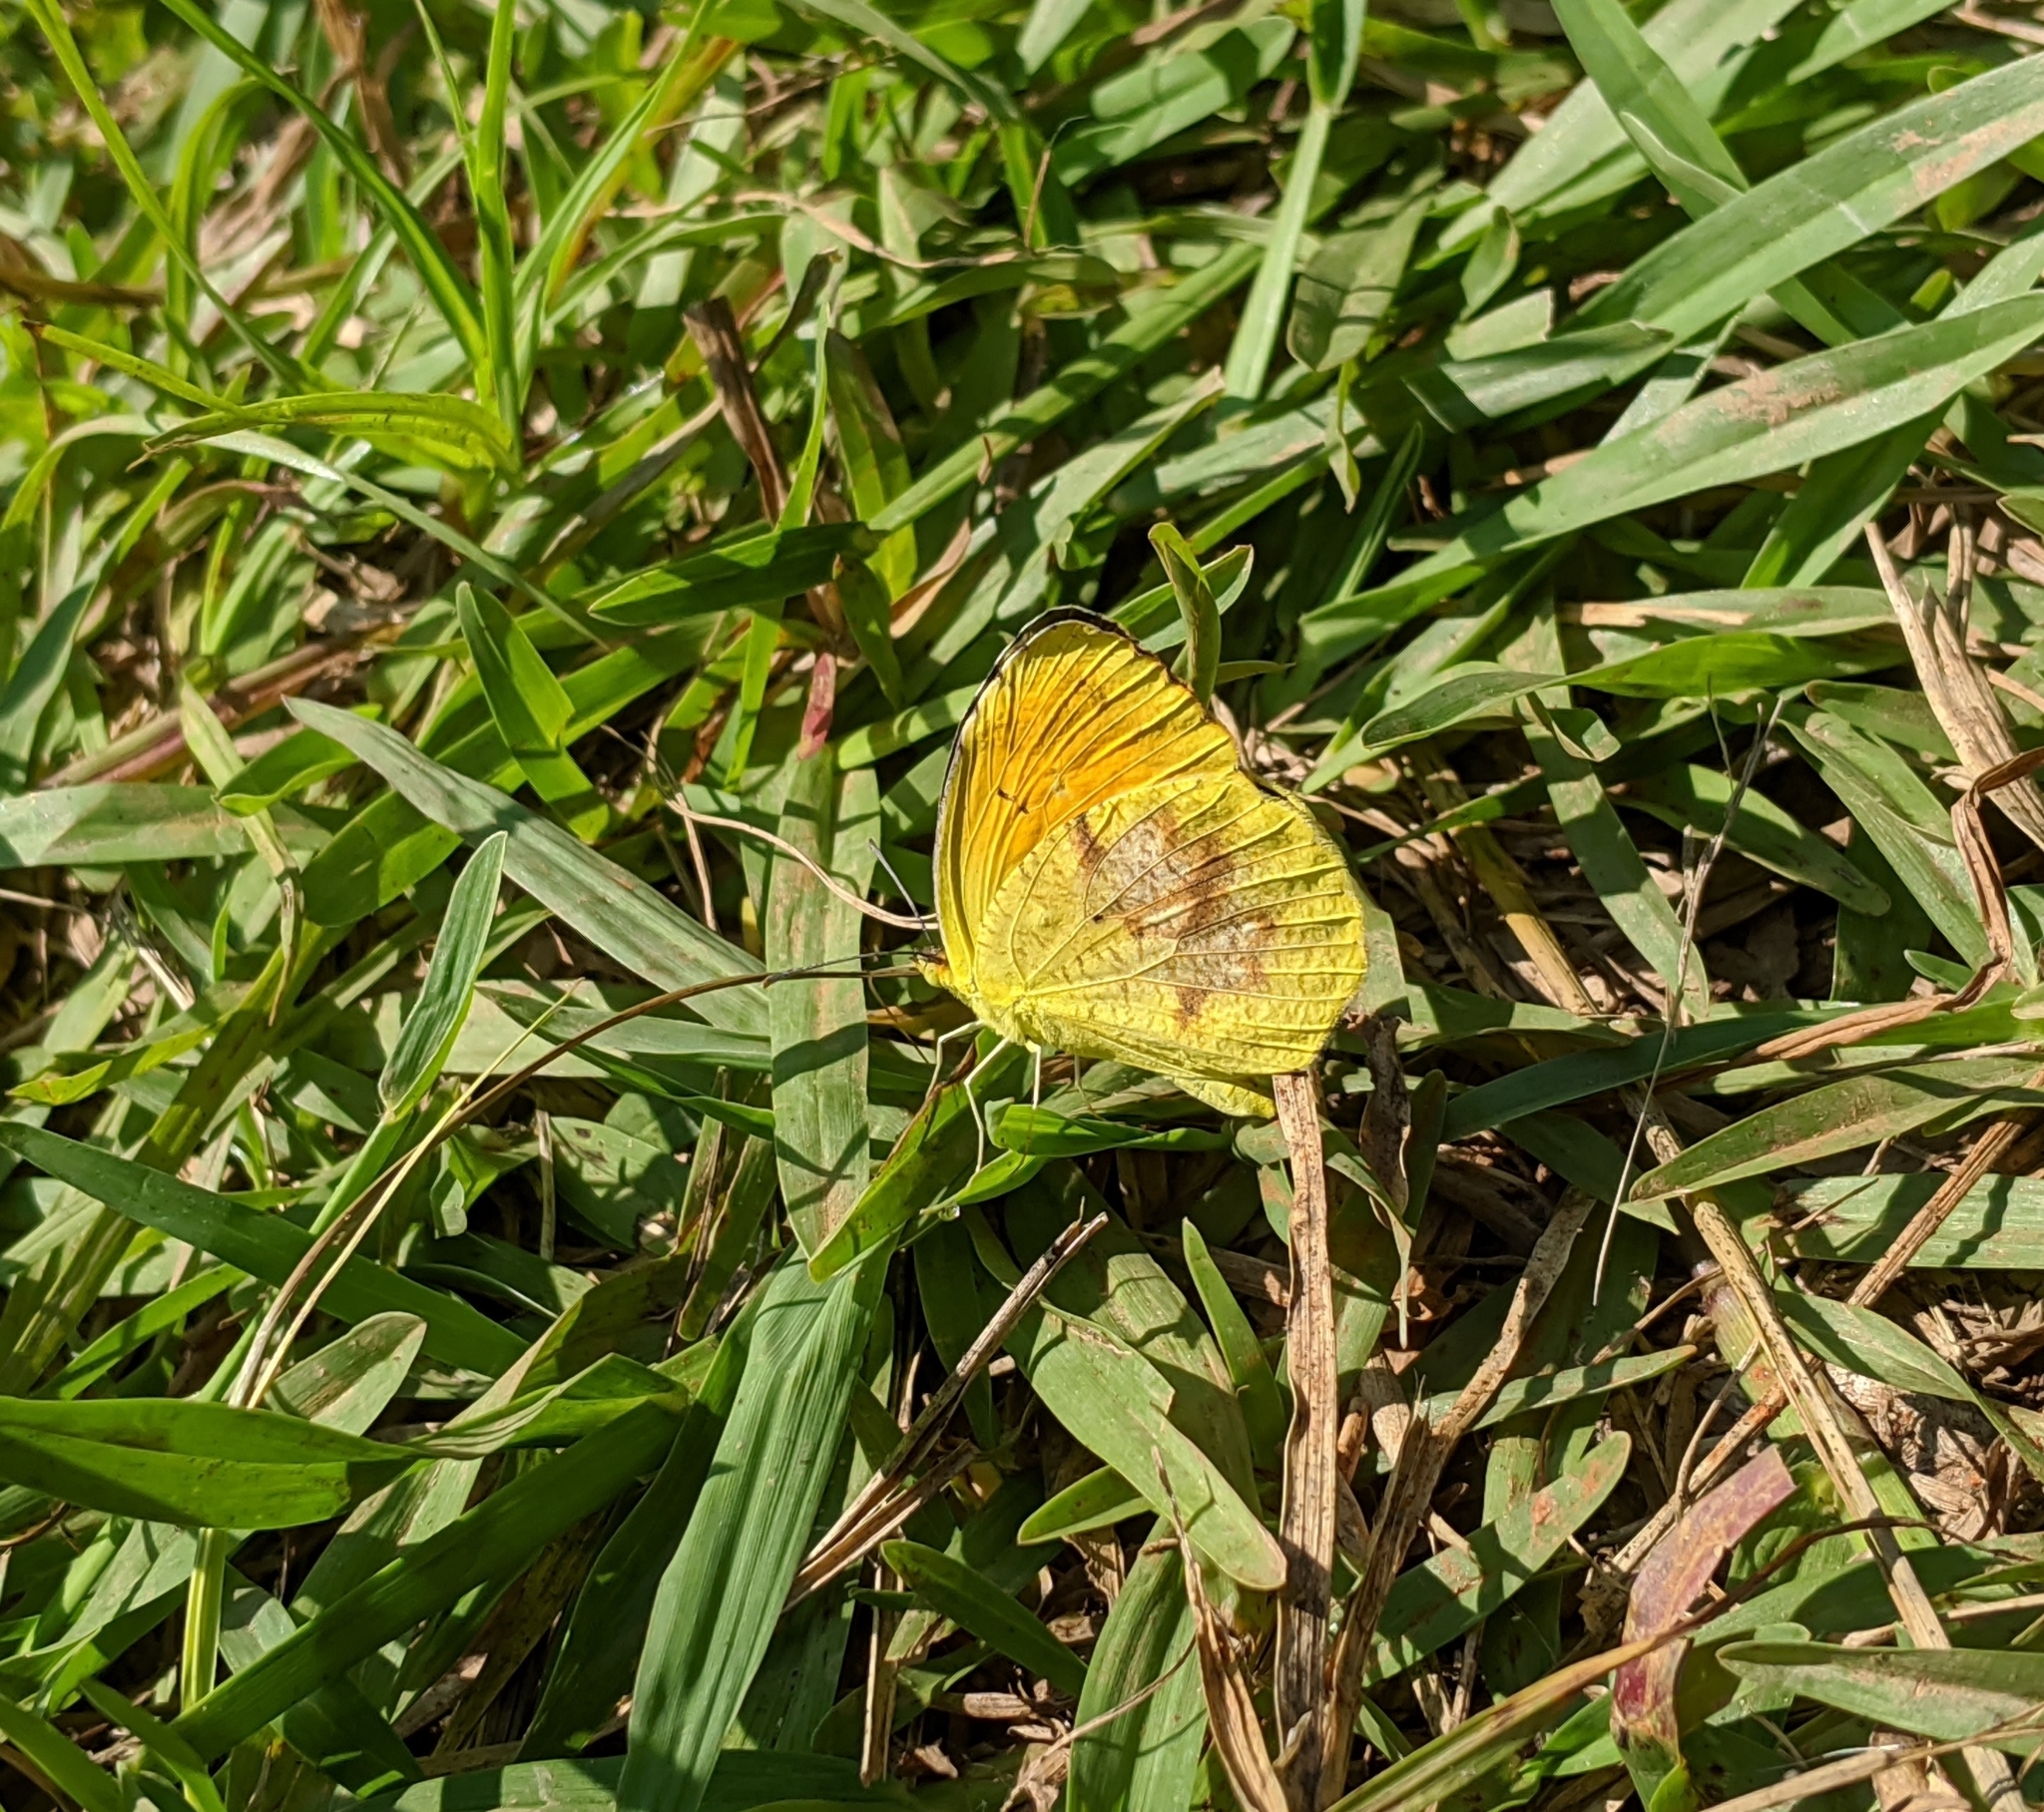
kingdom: Animalia
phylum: Arthropoda
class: Insecta
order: Lepidoptera
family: Pieridae
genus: Abaeis
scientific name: Abaeis nicippe
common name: Sleepy orange
